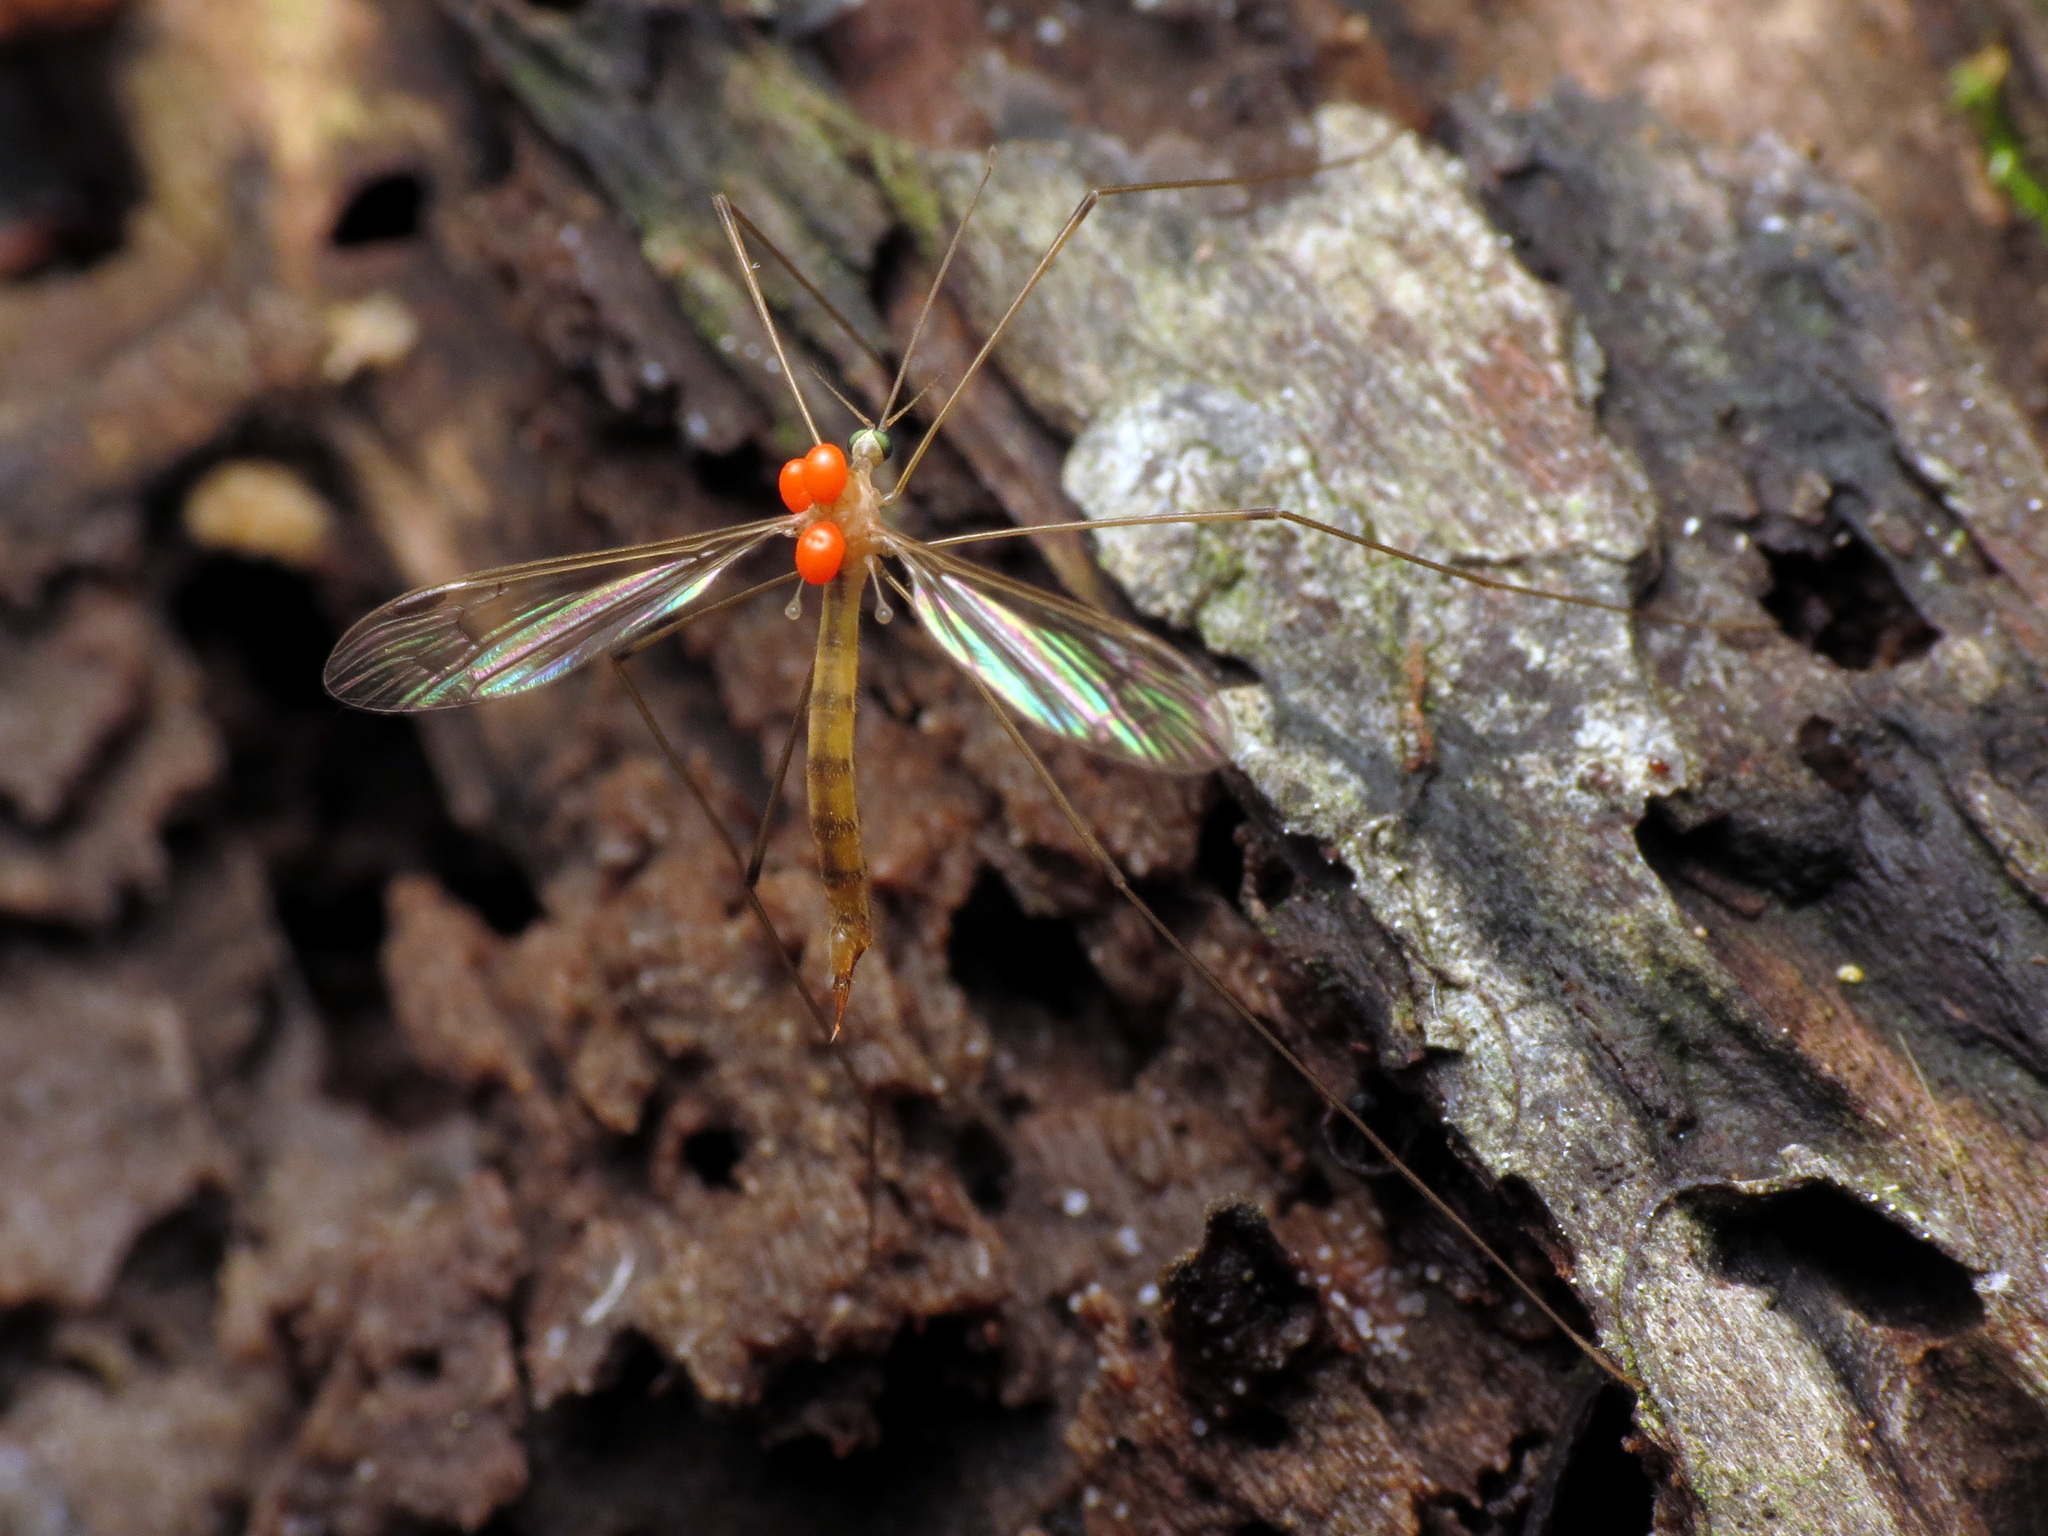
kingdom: Animalia
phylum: Arthropoda
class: Insecta
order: Diptera
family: Limoniidae
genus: Elephantomyia
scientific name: Elephantomyia westwoodi
